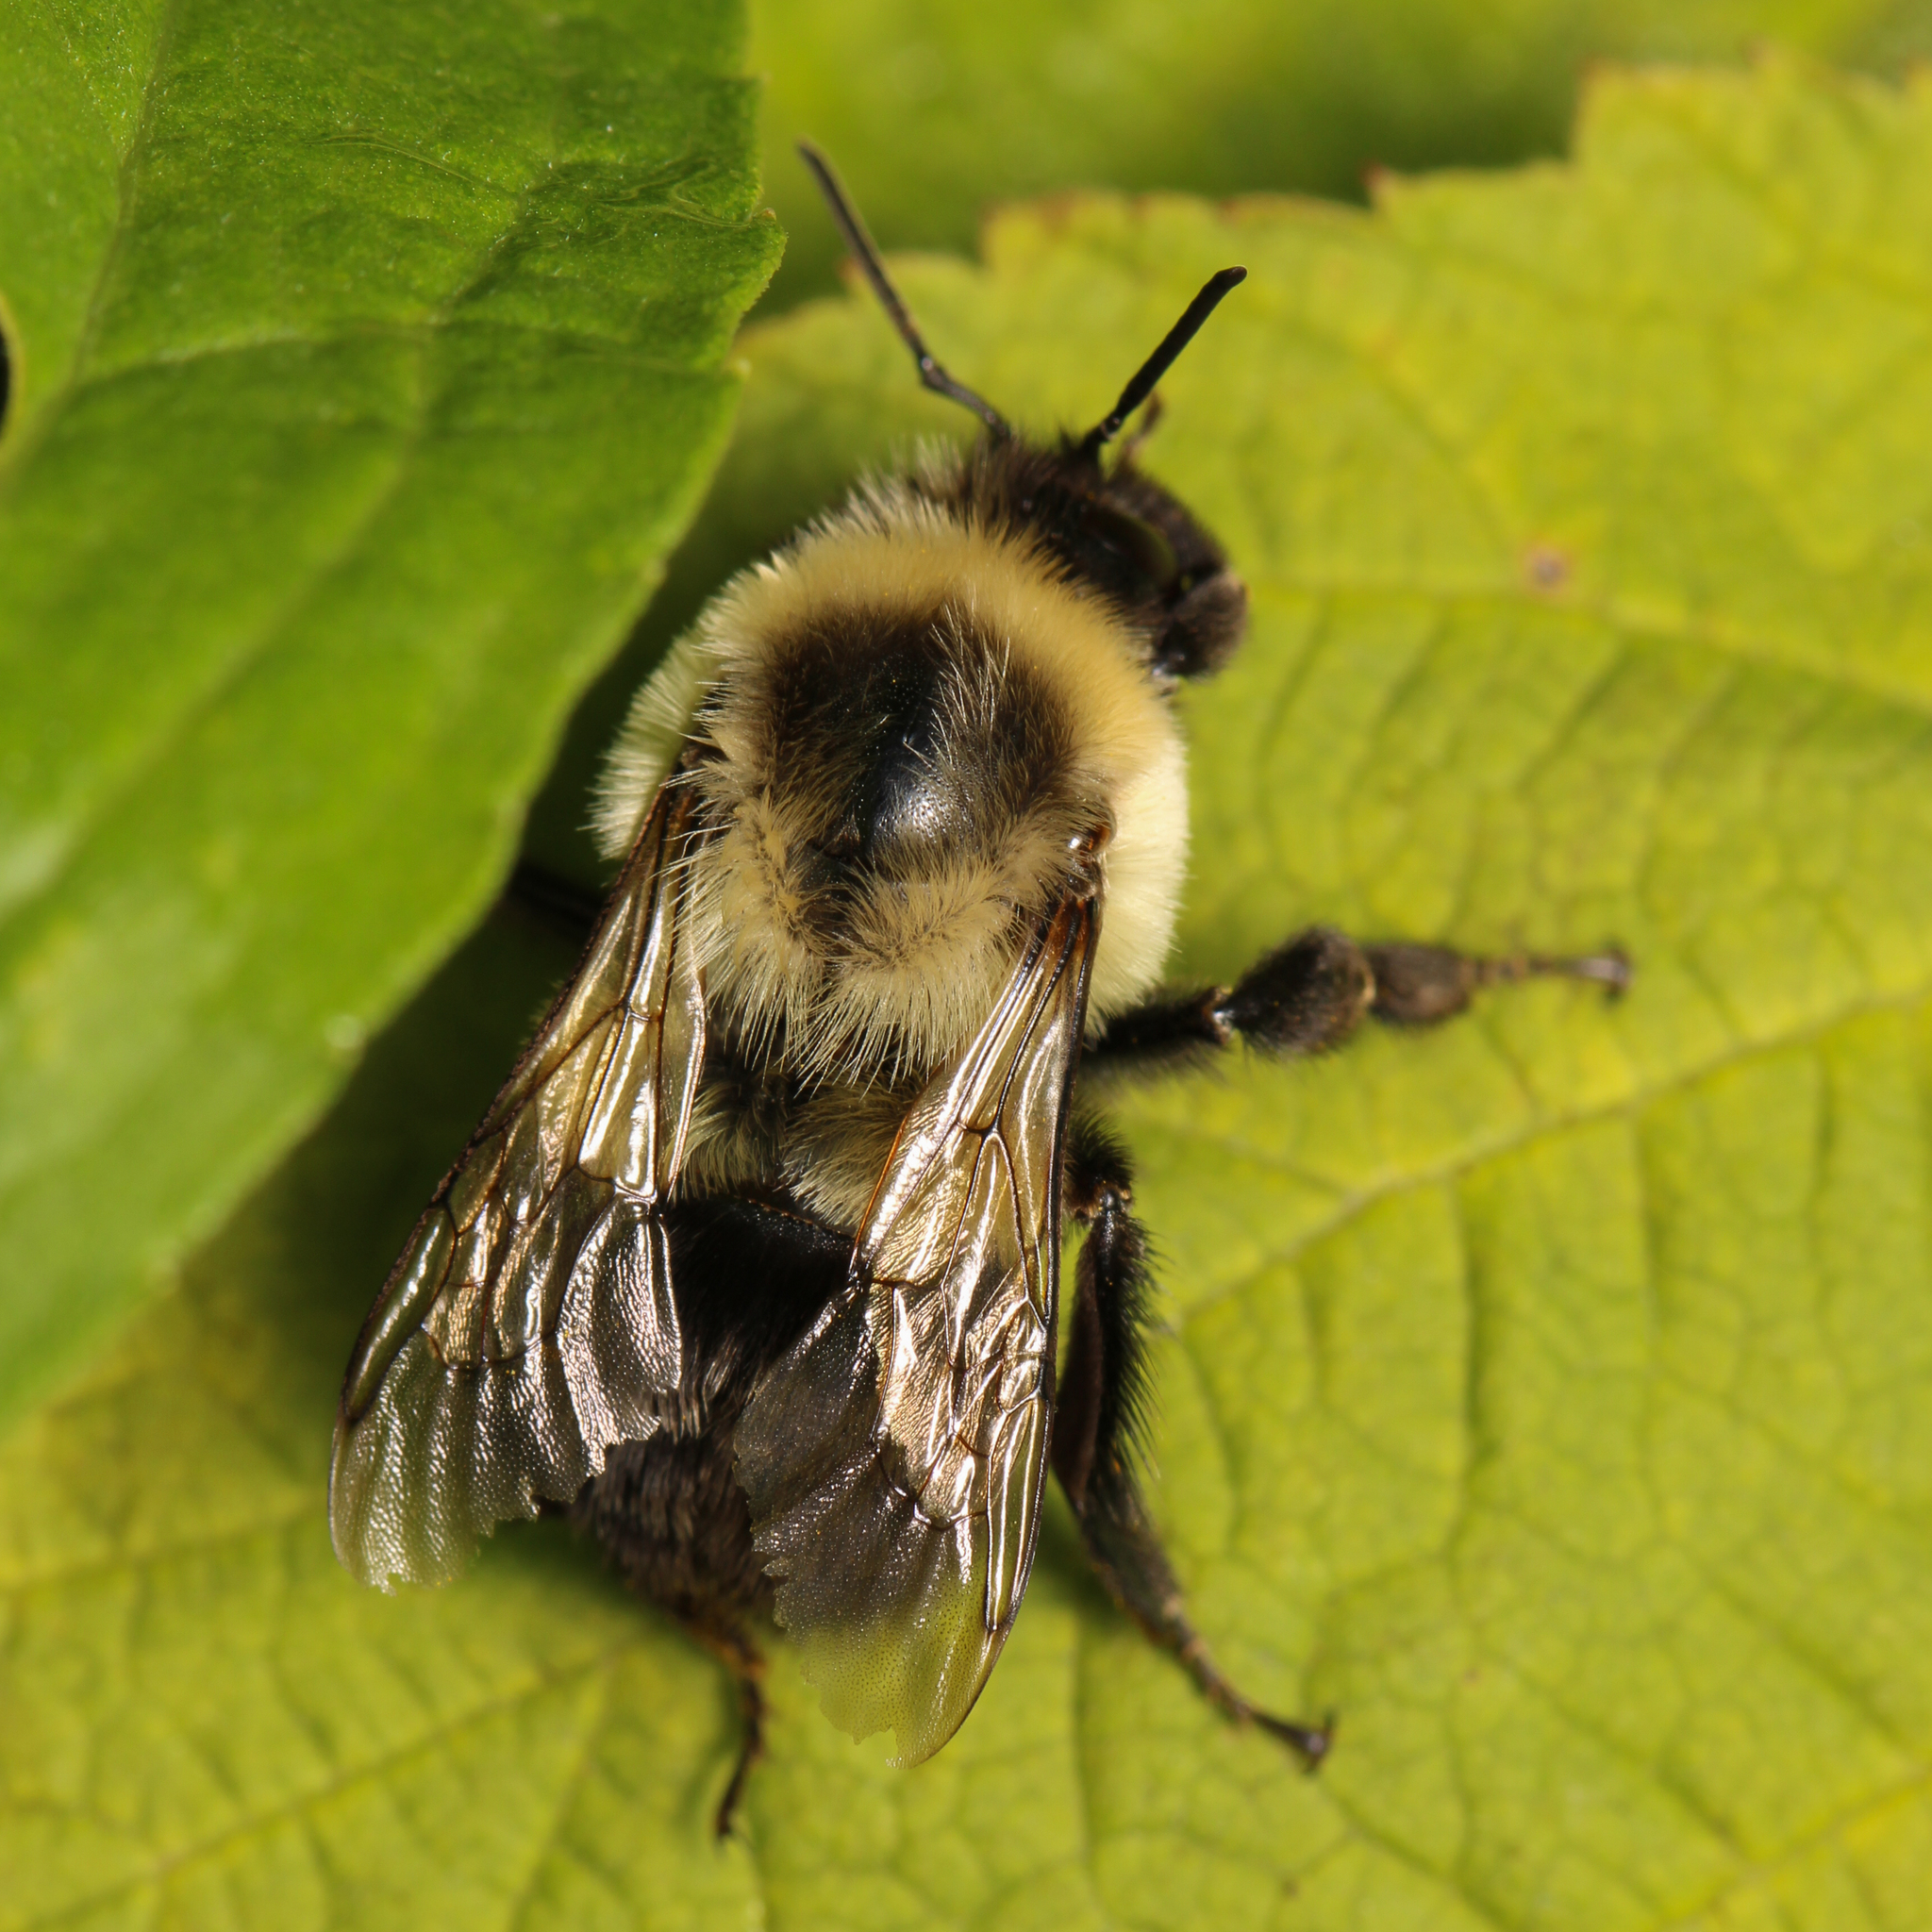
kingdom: Animalia
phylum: Arthropoda
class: Insecta
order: Hymenoptera
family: Apidae
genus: Bombus
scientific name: Bombus impatiens
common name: Common eastern bumble bee
